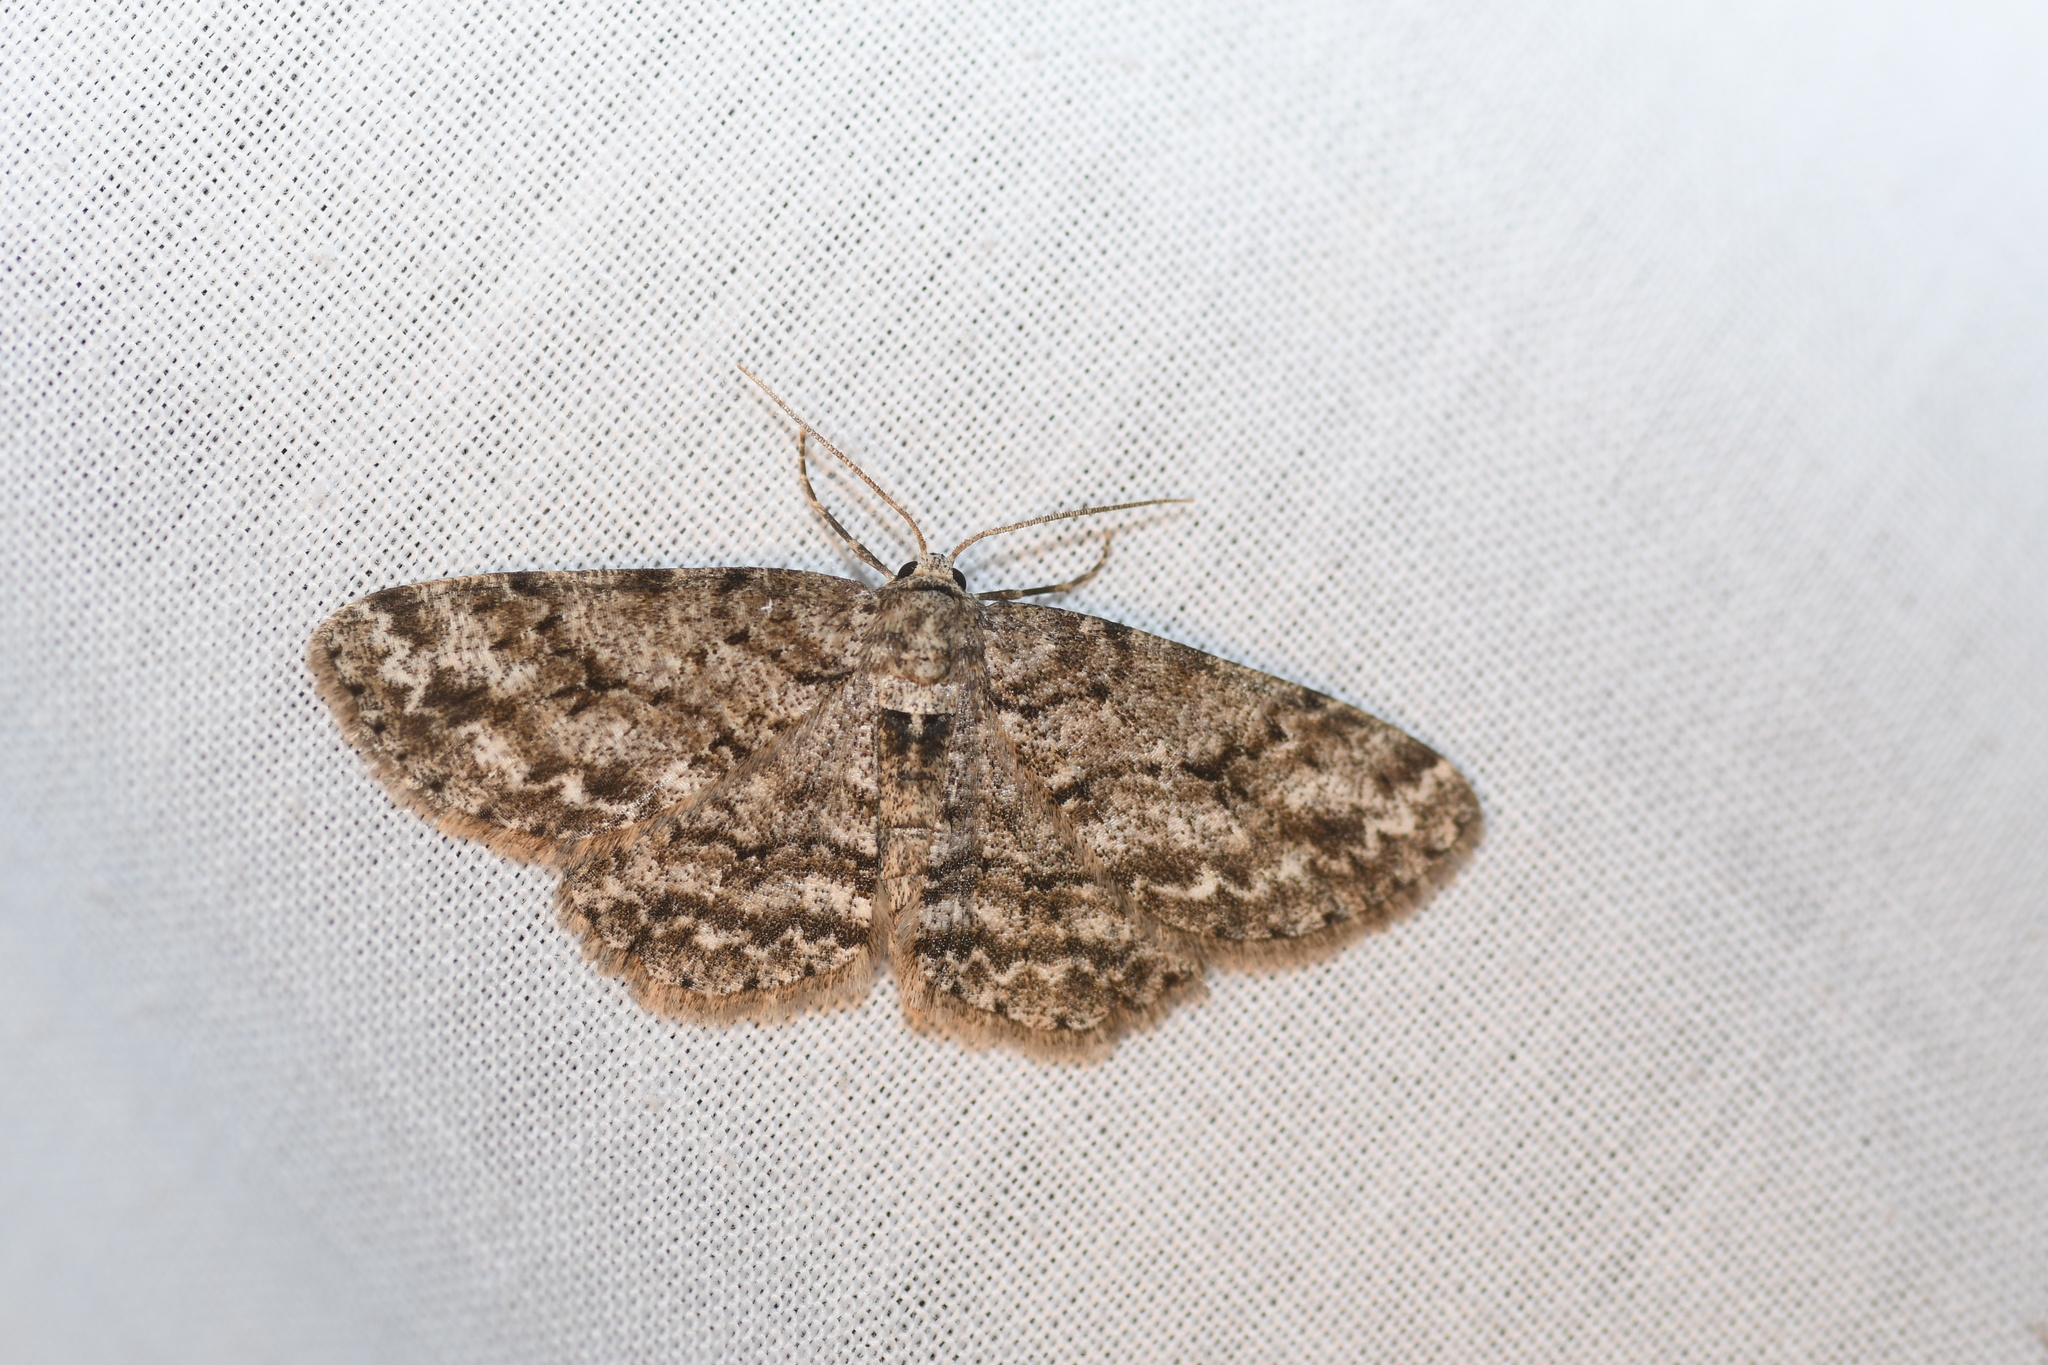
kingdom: Animalia
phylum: Arthropoda
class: Insecta
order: Lepidoptera
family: Geometridae
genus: Ectropis
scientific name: Ectropis crepuscularia
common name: Engrailed
